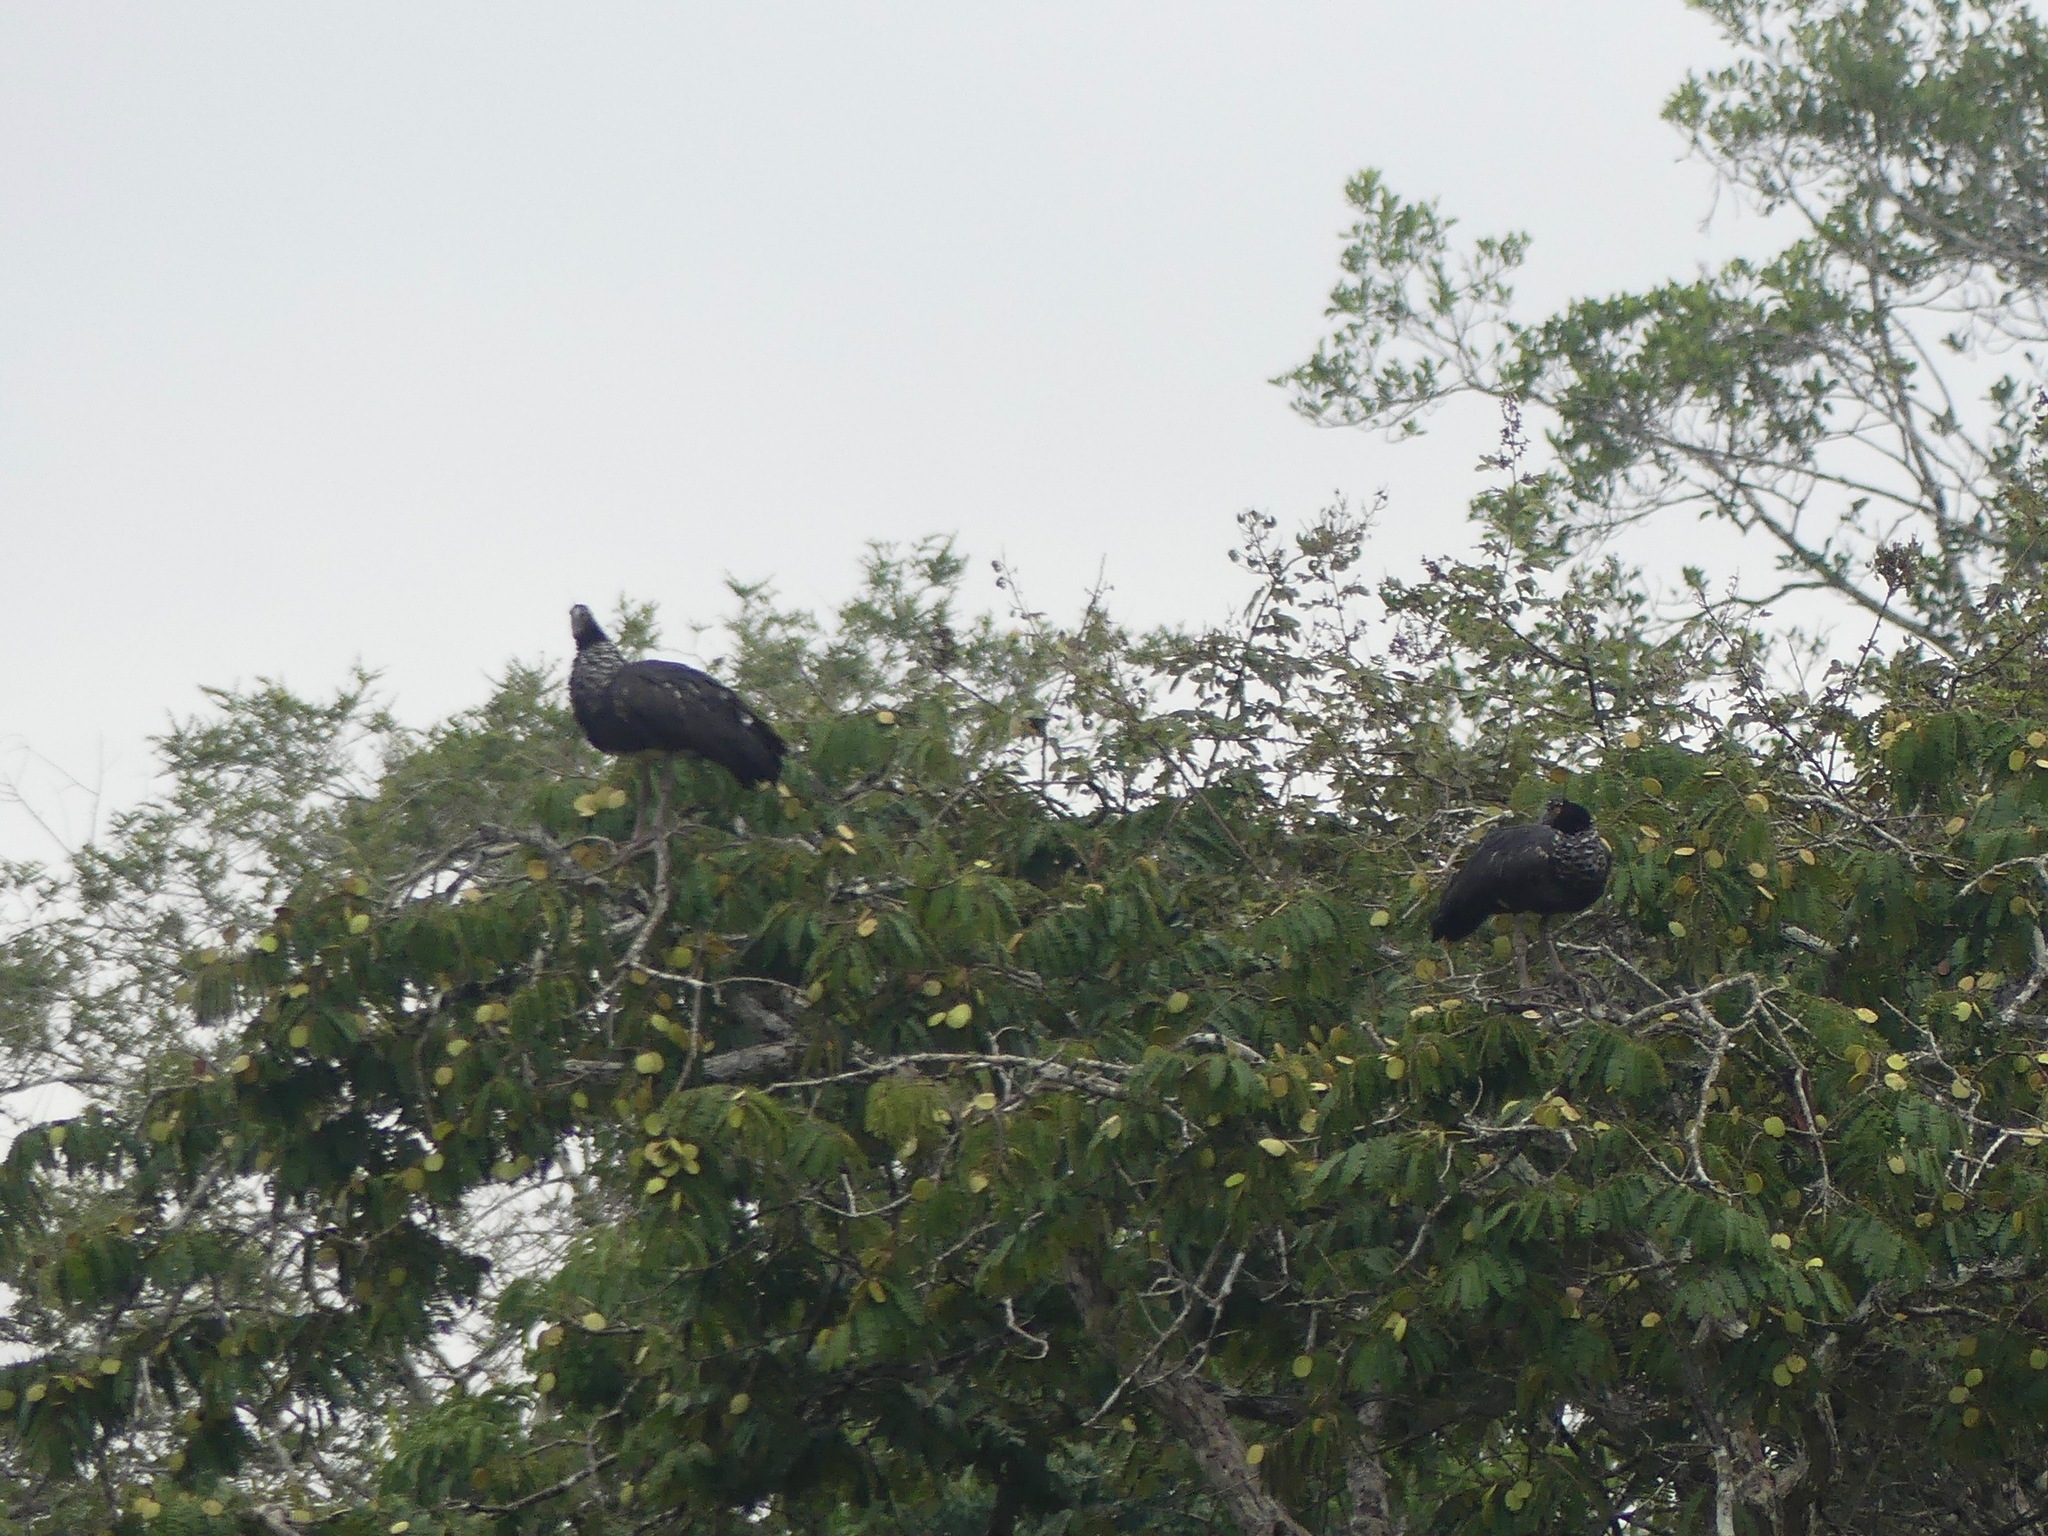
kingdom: Animalia
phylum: Chordata
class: Aves
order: Anseriformes
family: Anhimidae
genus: Anhima
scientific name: Anhima cornuta
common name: Horned screamer
